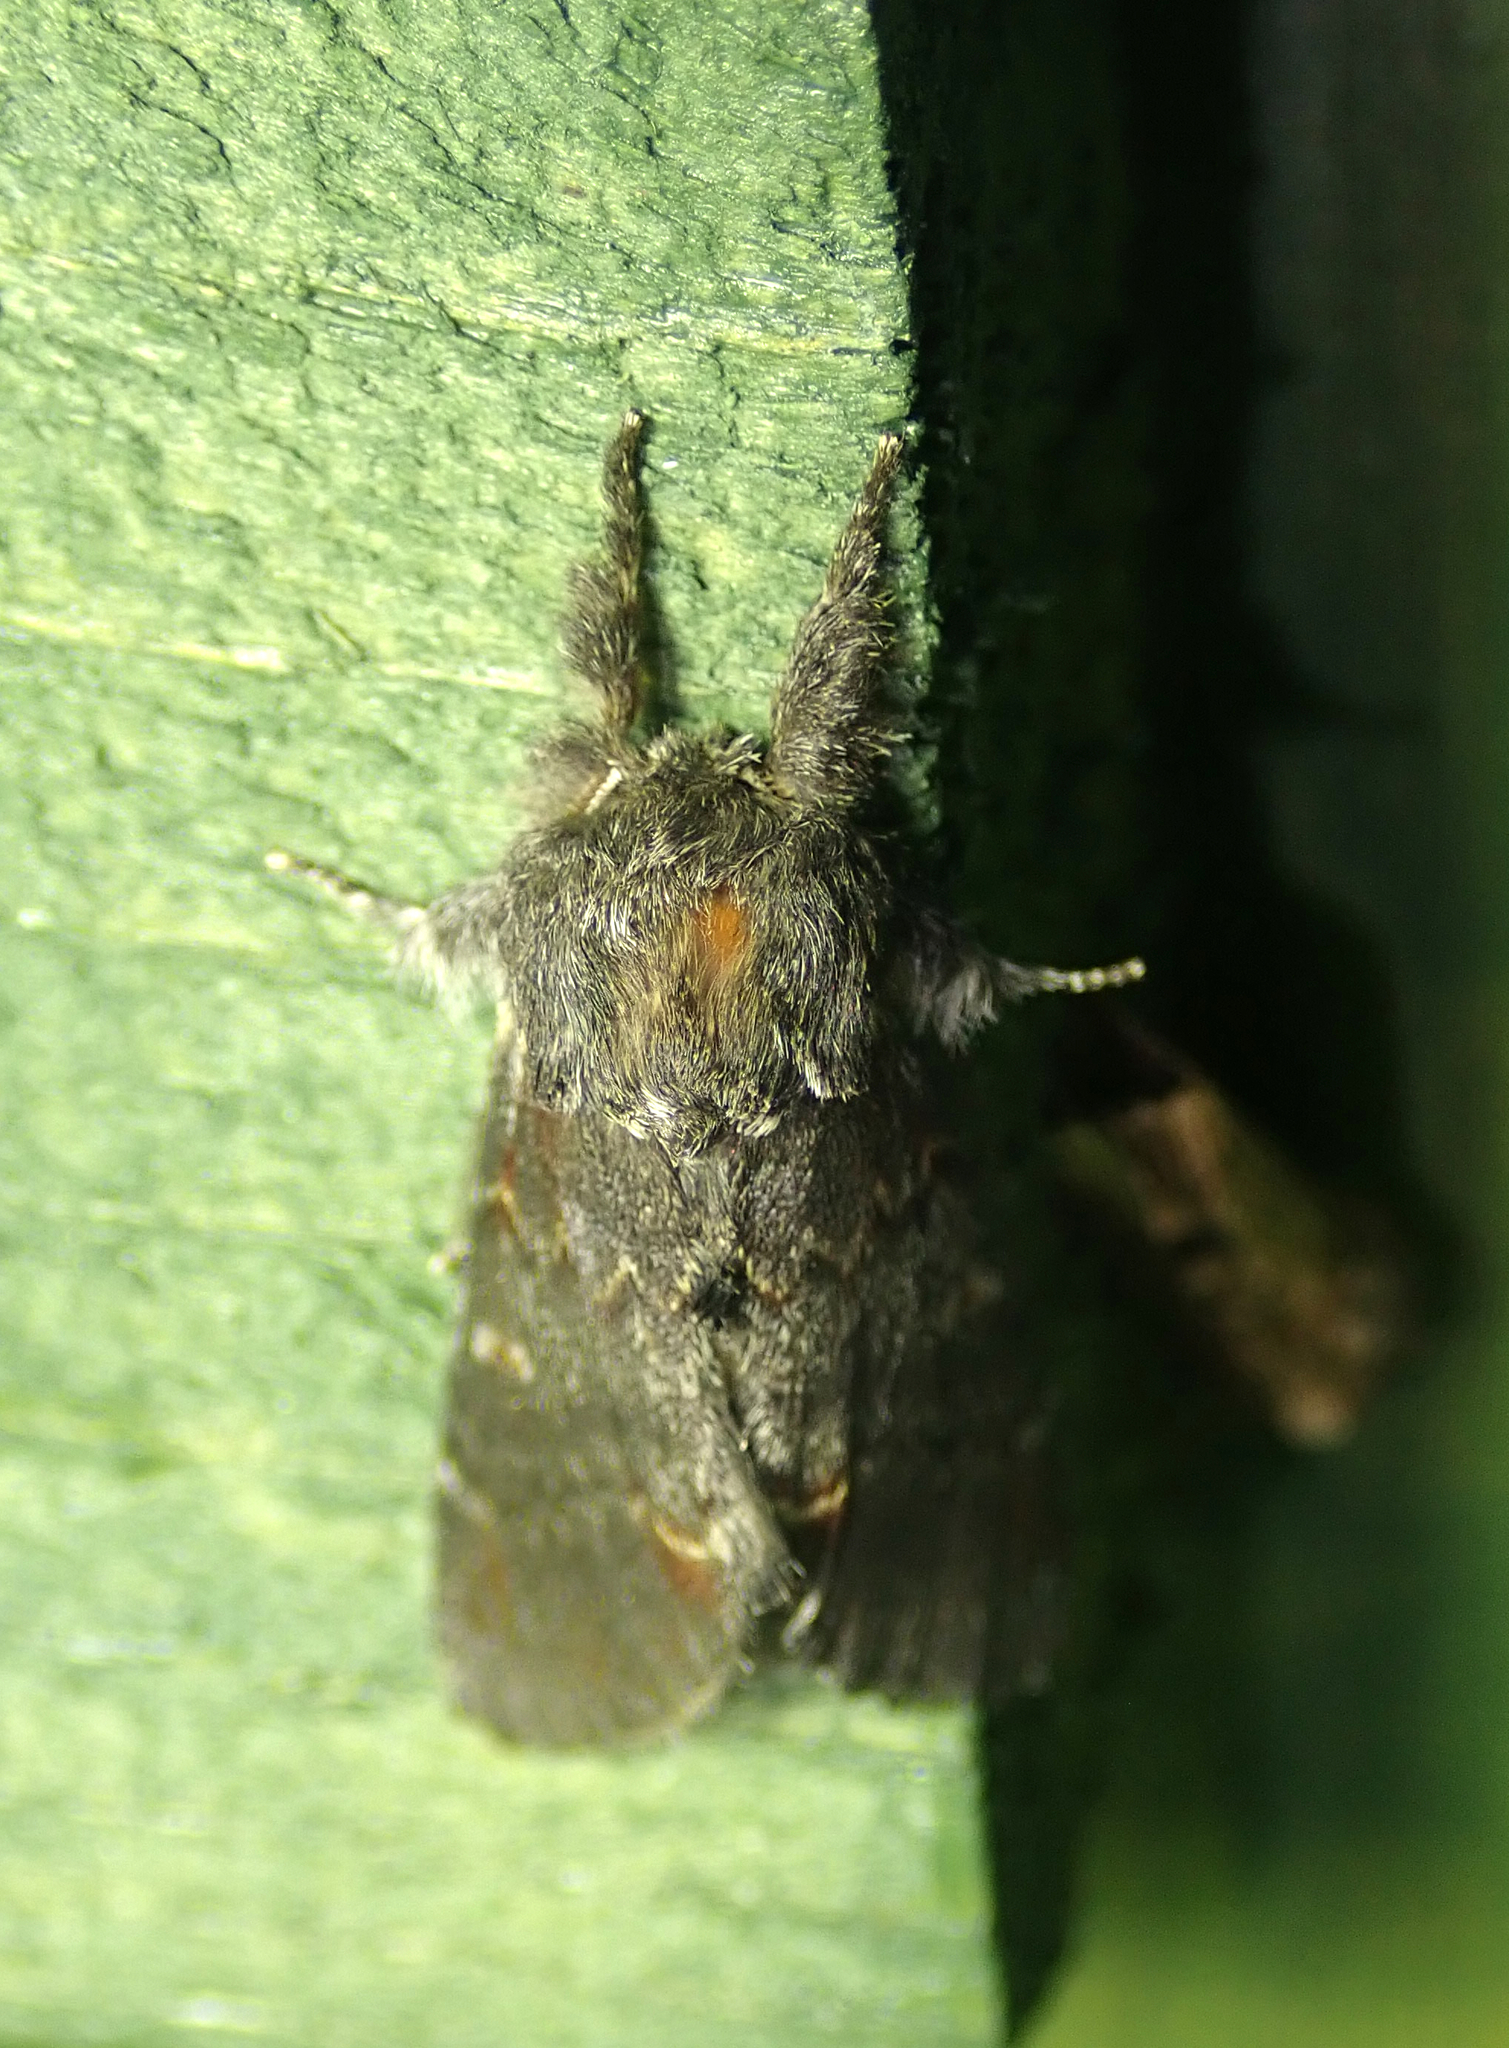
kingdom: Animalia
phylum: Arthropoda
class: Insecta
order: Lepidoptera
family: Notodontidae
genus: Notodonta
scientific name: Notodonta dromedarius
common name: Iron prominent
